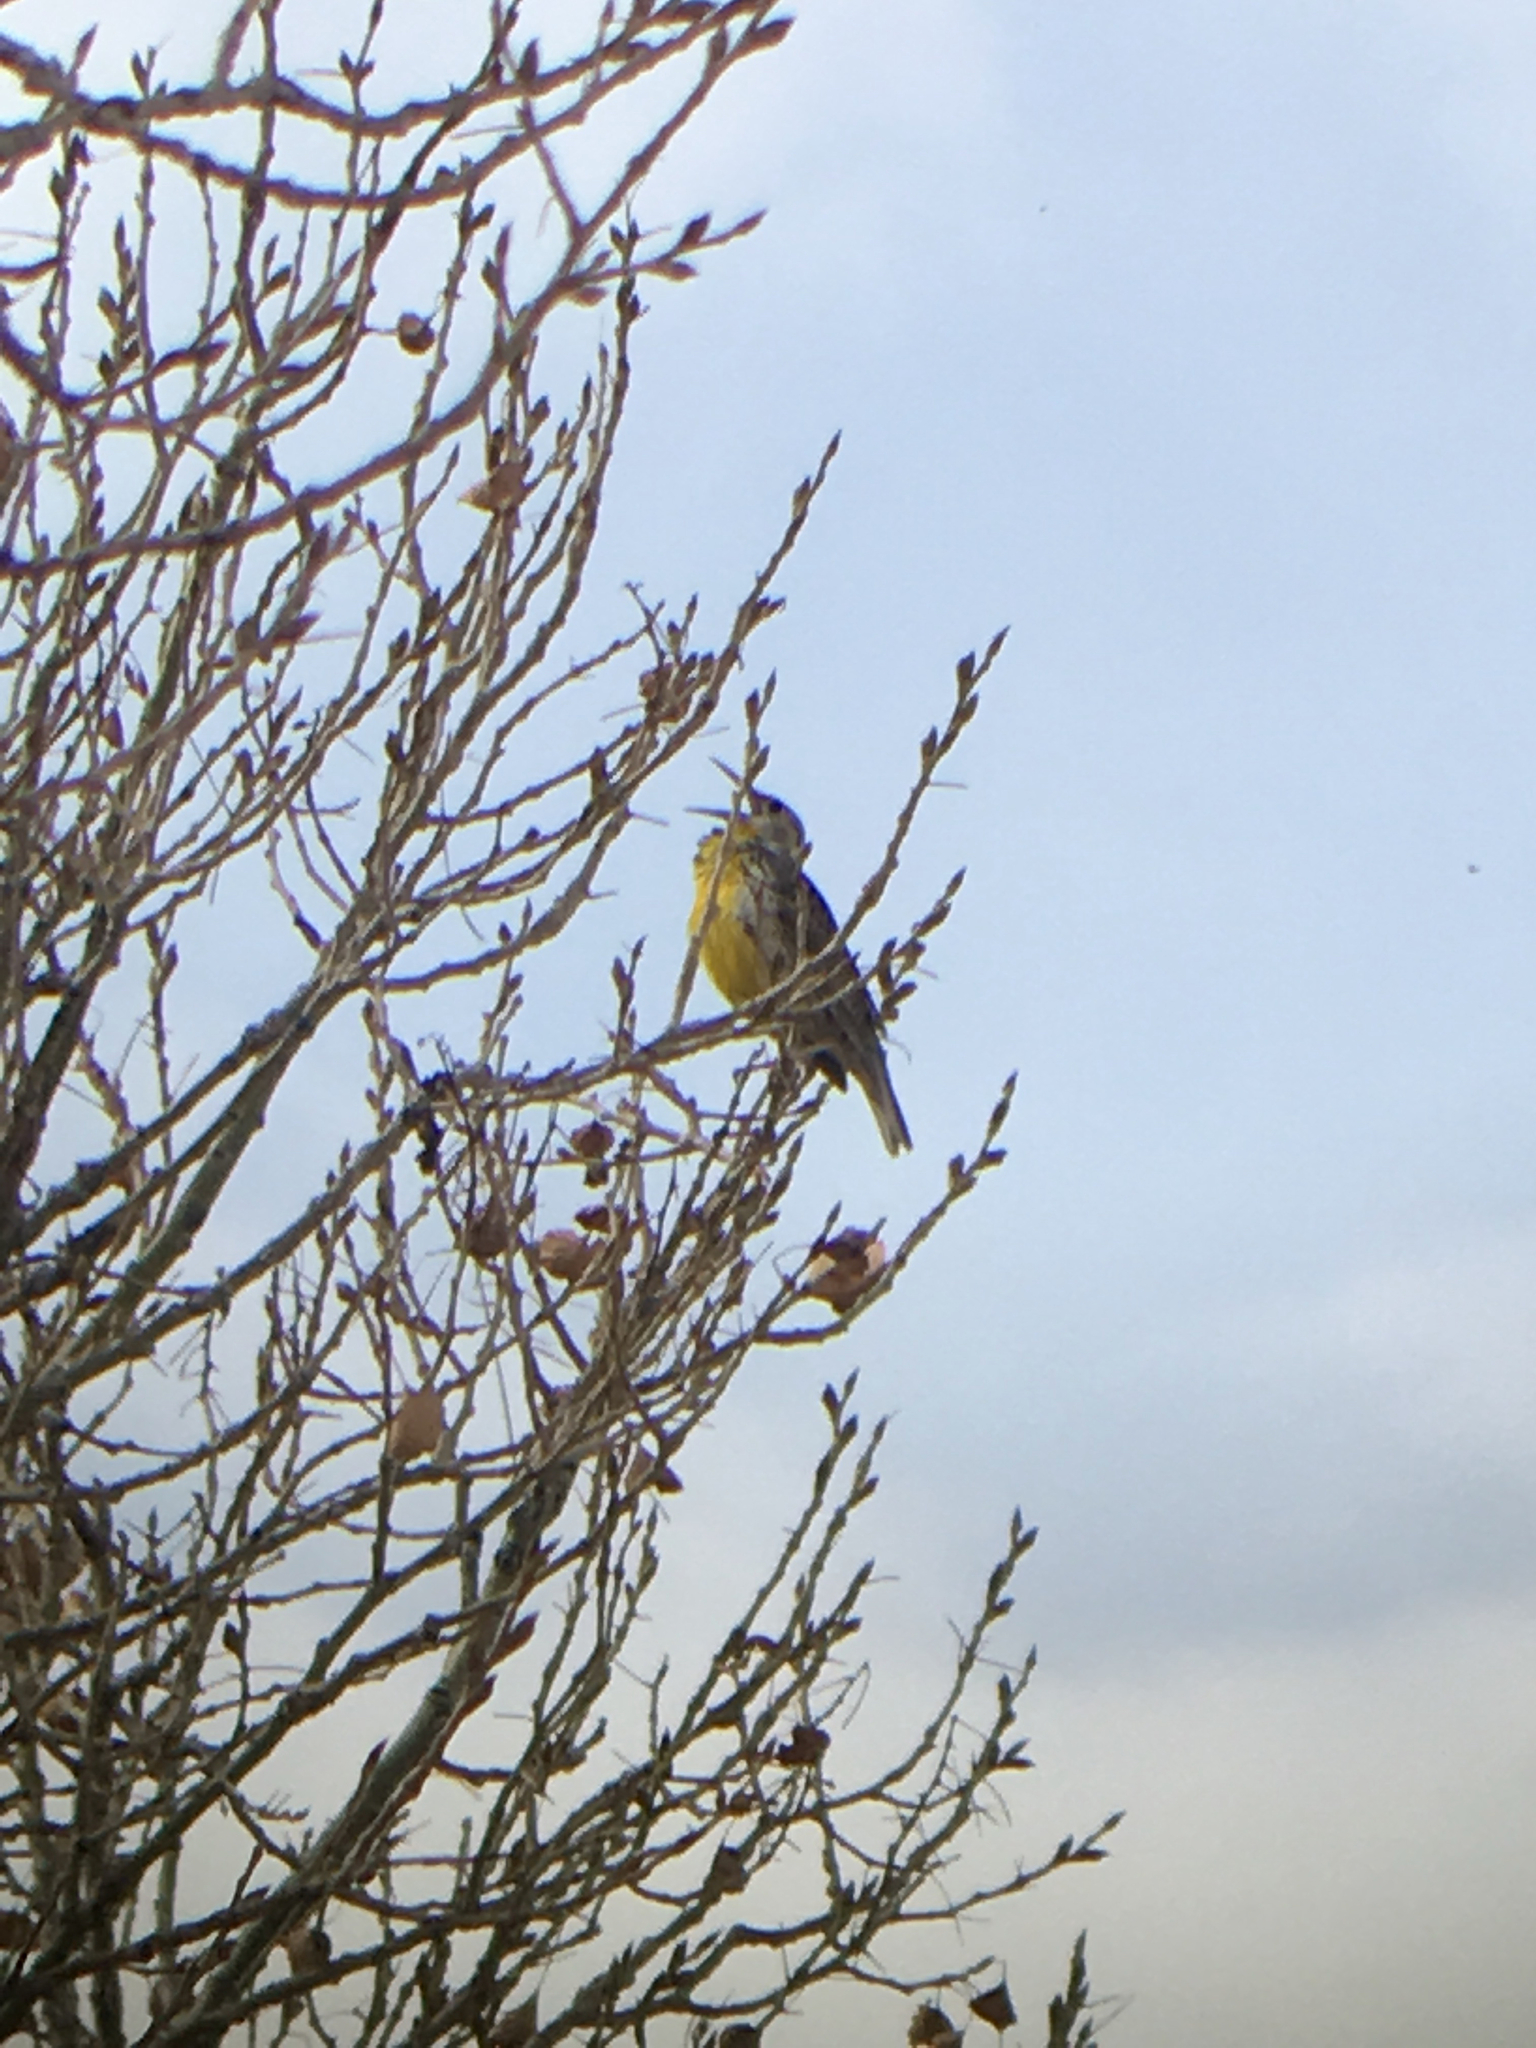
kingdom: Animalia
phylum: Chordata
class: Aves
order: Passeriformes
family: Icteridae
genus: Sturnella
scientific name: Sturnella neglecta
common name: Western meadowlark
